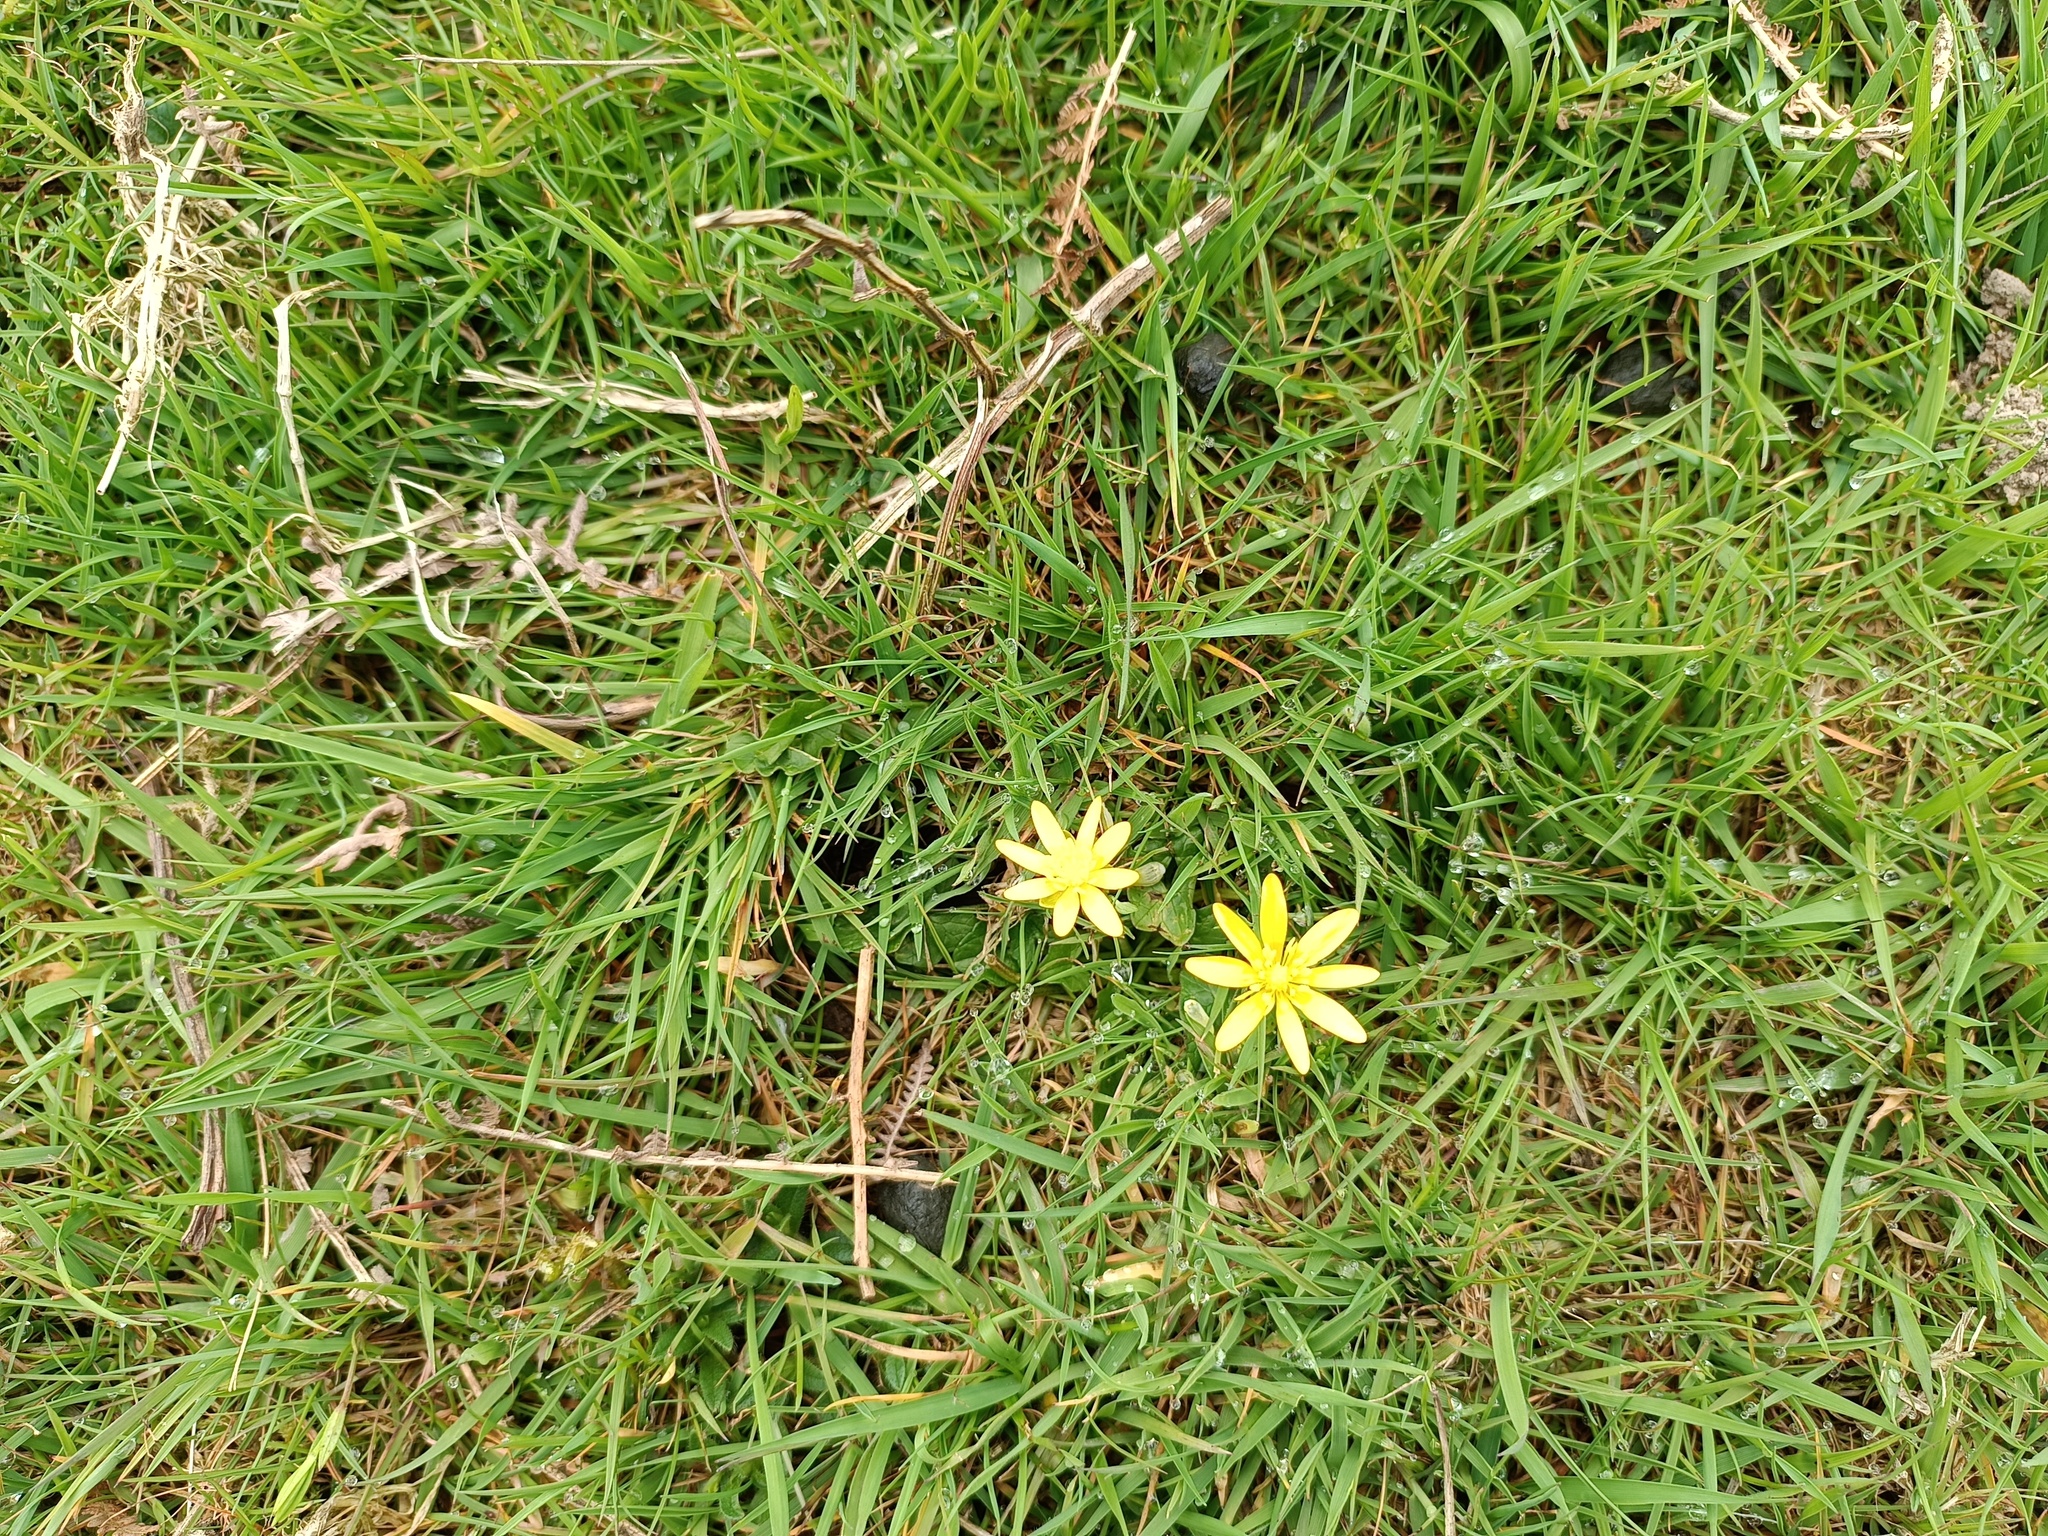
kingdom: Plantae
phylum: Tracheophyta
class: Magnoliopsida
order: Ranunculales
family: Ranunculaceae
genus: Ficaria
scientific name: Ficaria verna
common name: Lesser celandine
